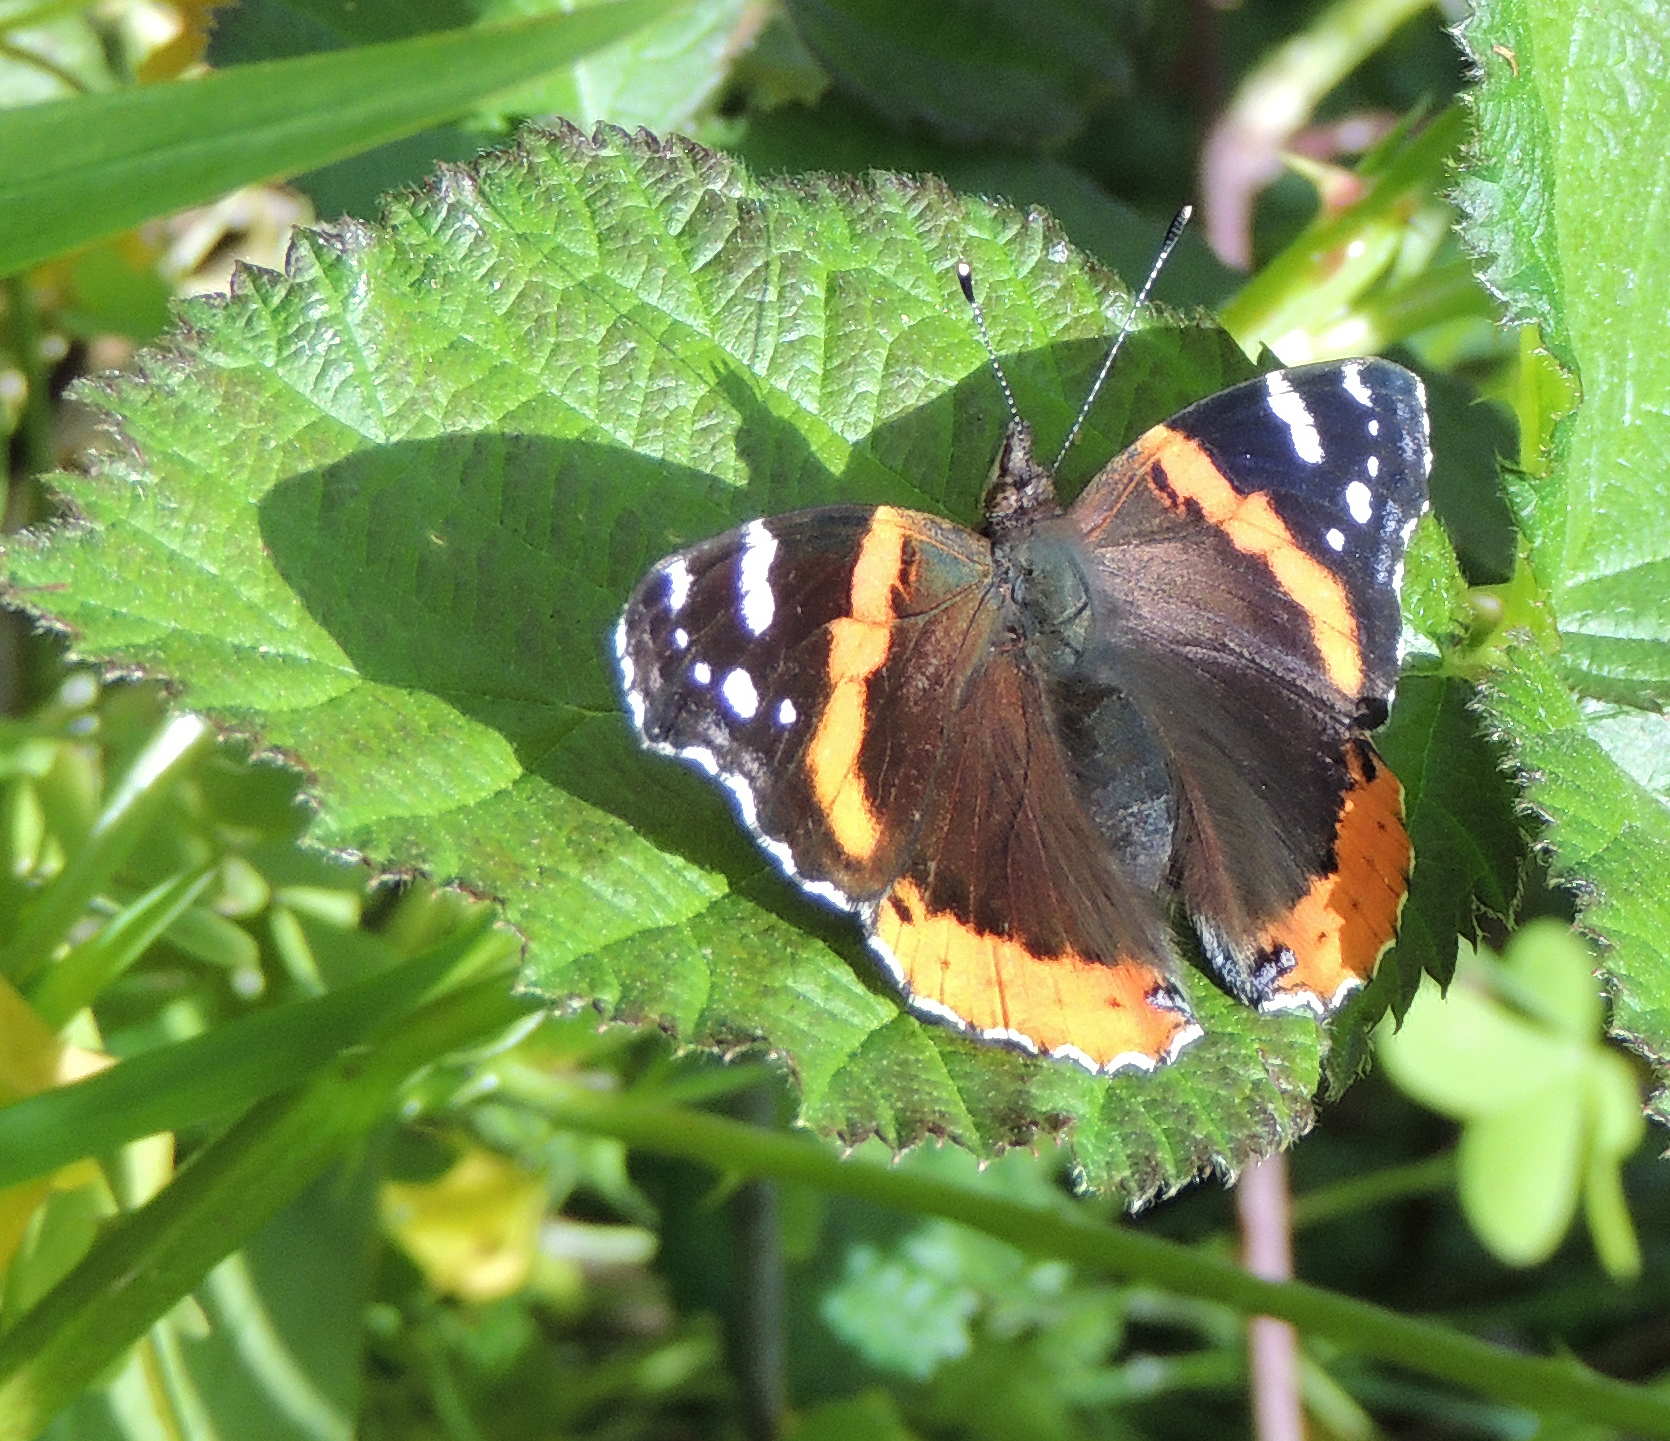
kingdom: Animalia
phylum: Arthropoda
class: Insecta
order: Lepidoptera
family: Nymphalidae
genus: Vanessa
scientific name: Vanessa atalanta
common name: Red admiral
